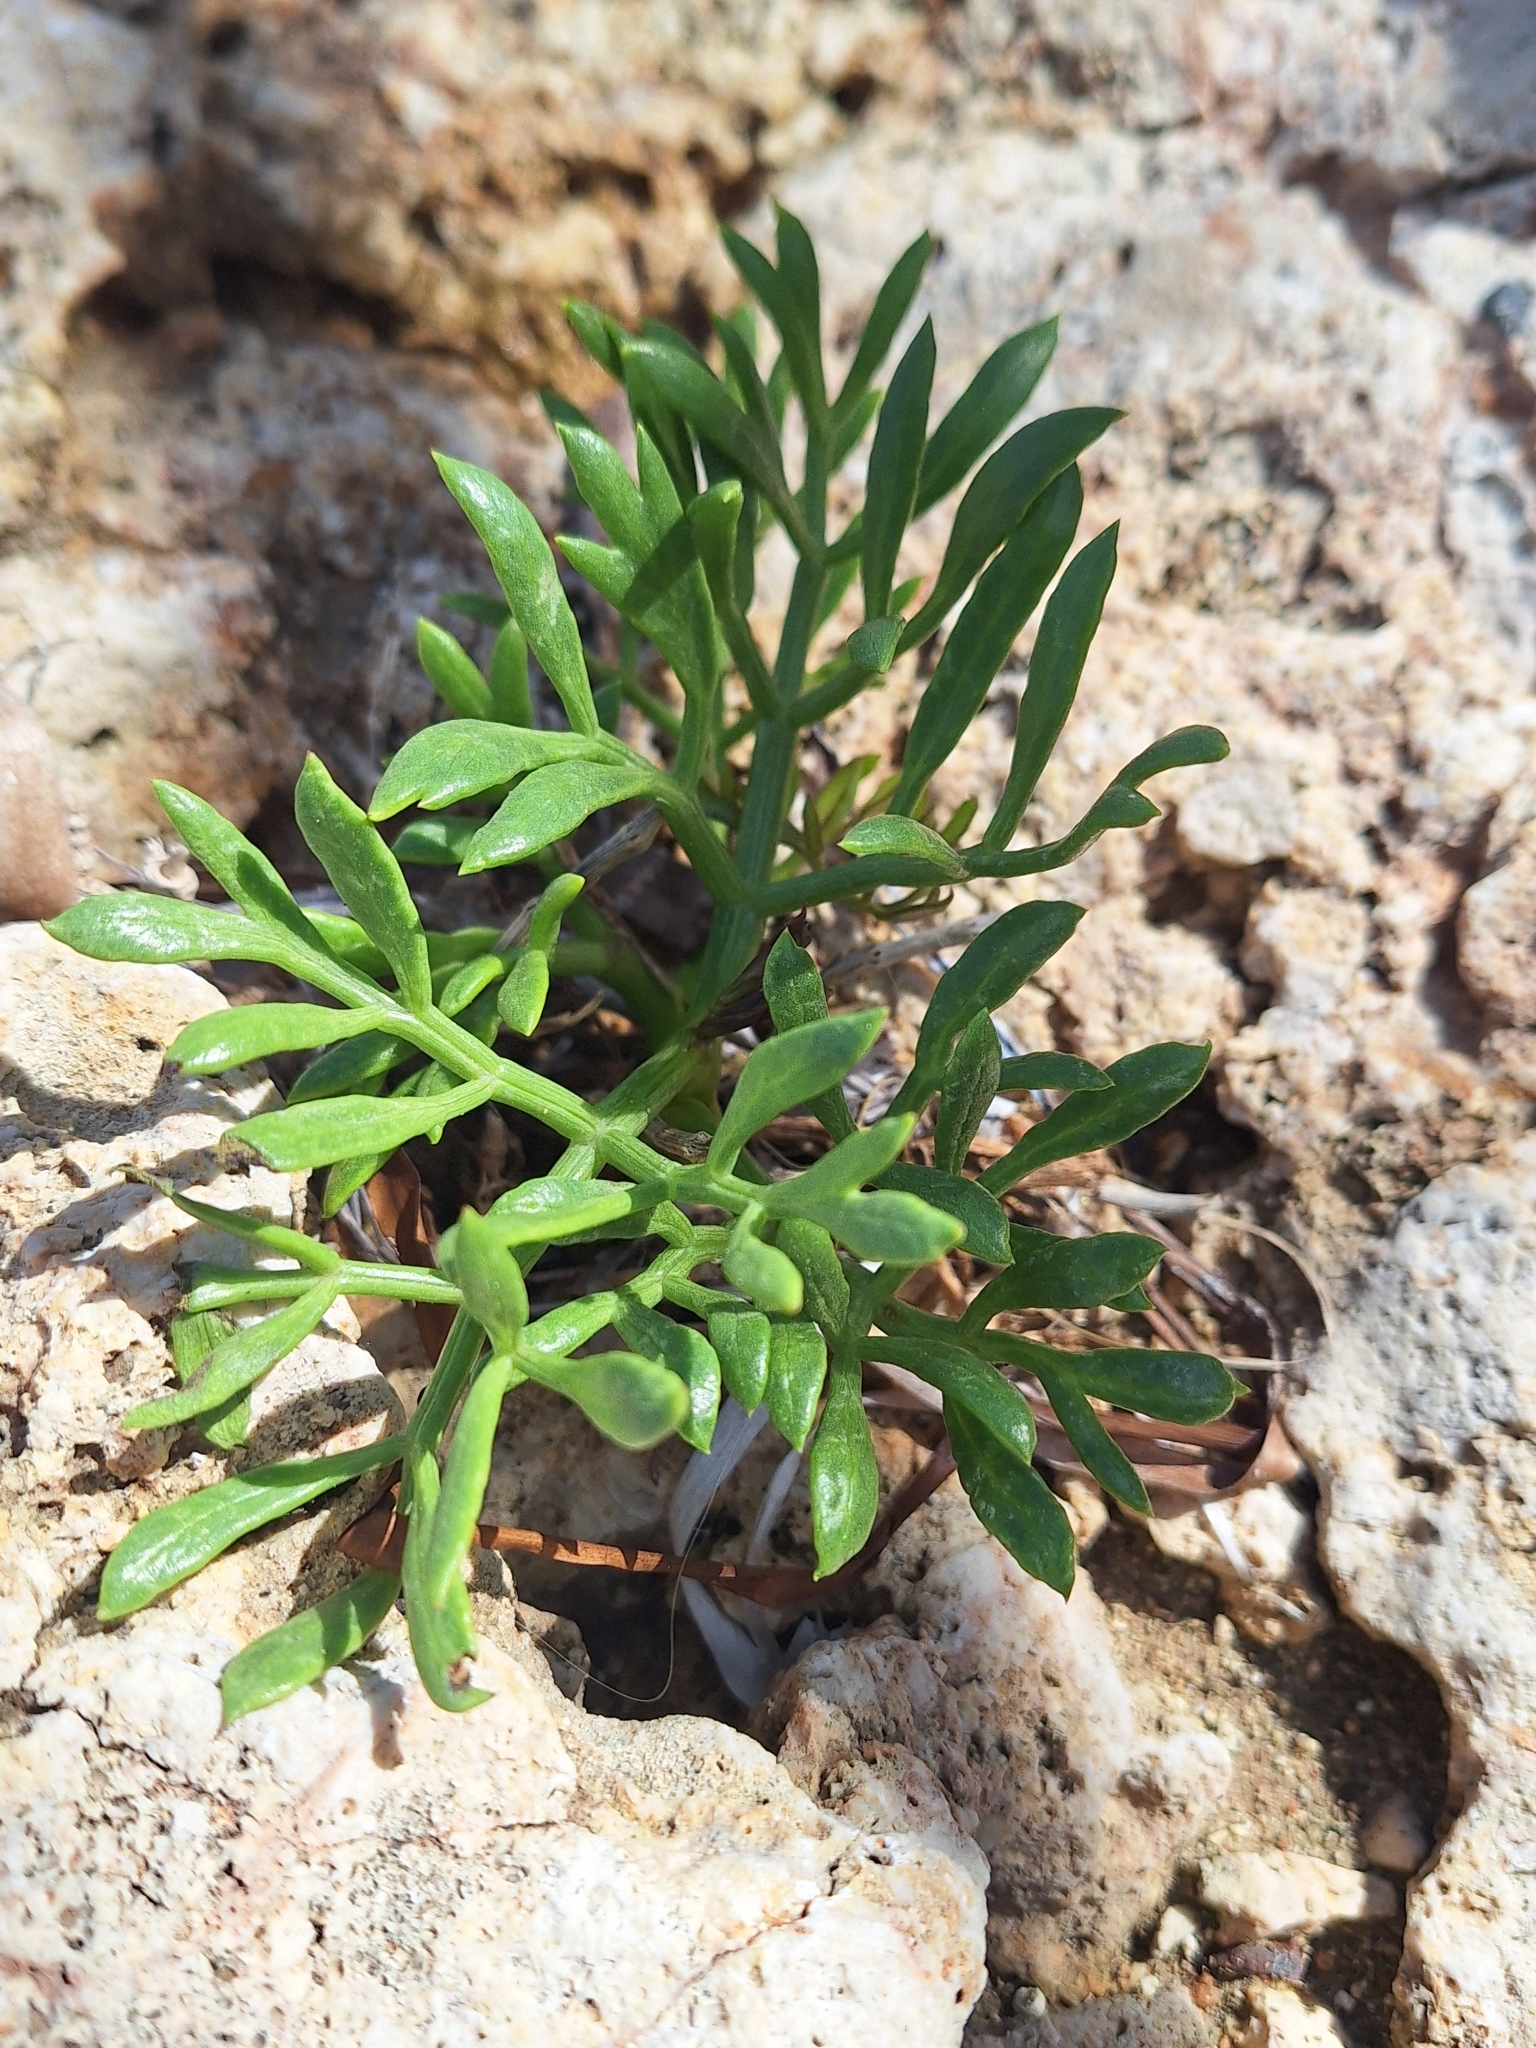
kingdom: Plantae
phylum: Tracheophyta
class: Magnoliopsida
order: Apiales
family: Apiaceae
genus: Crithmum
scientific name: Crithmum maritimum
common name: Rock samphire
